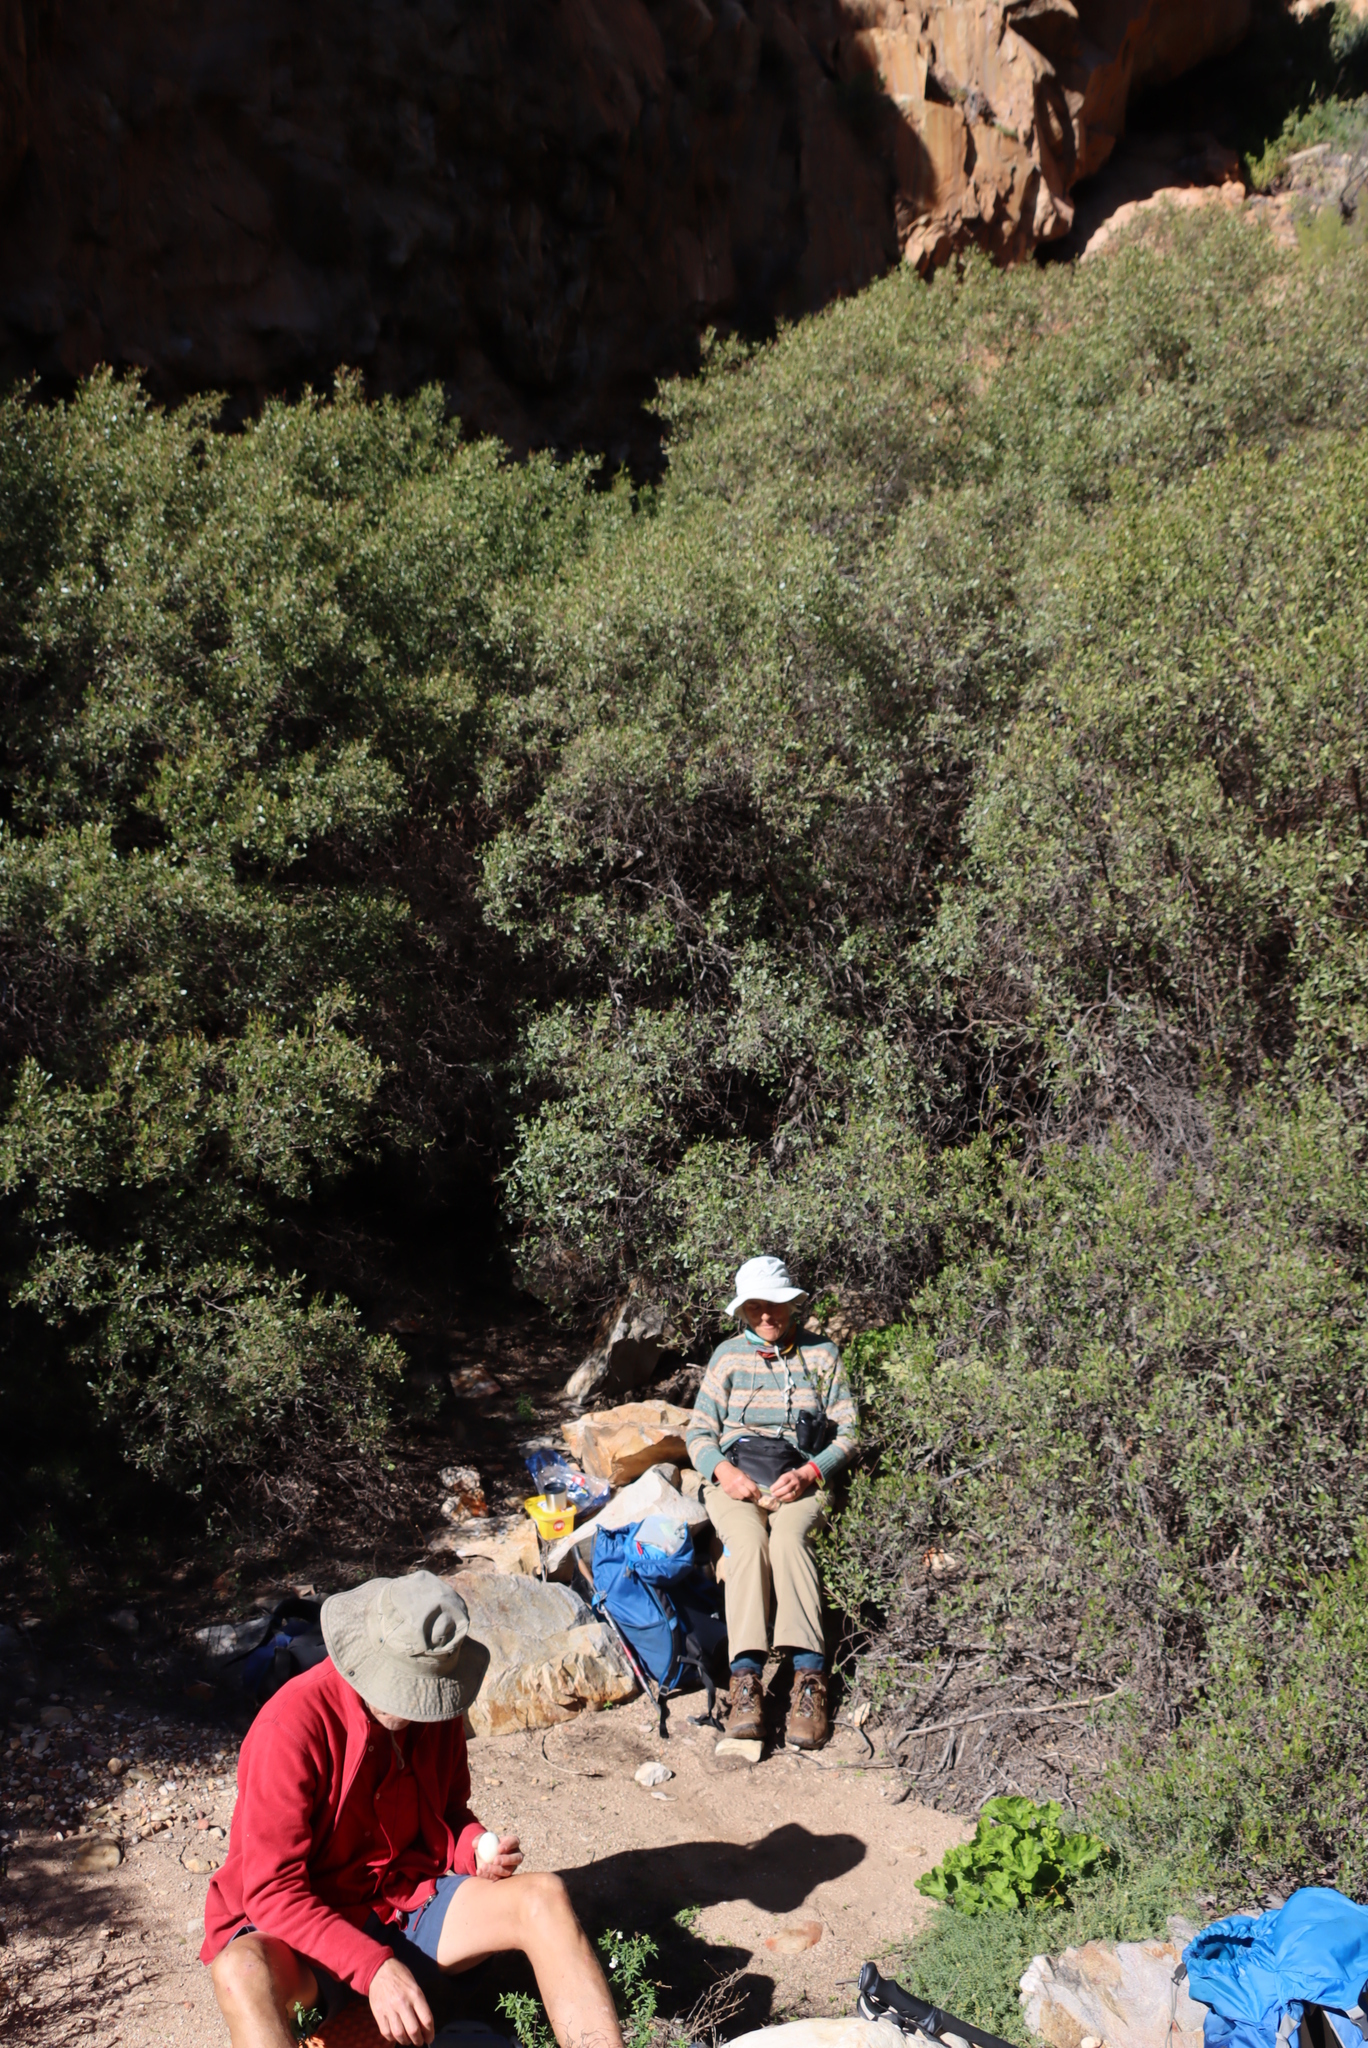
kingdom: Plantae
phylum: Tracheophyta
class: Magnoliopsida
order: Sapindales
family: Anacardiaceae
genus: Searsia
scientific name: Searsia pallens
